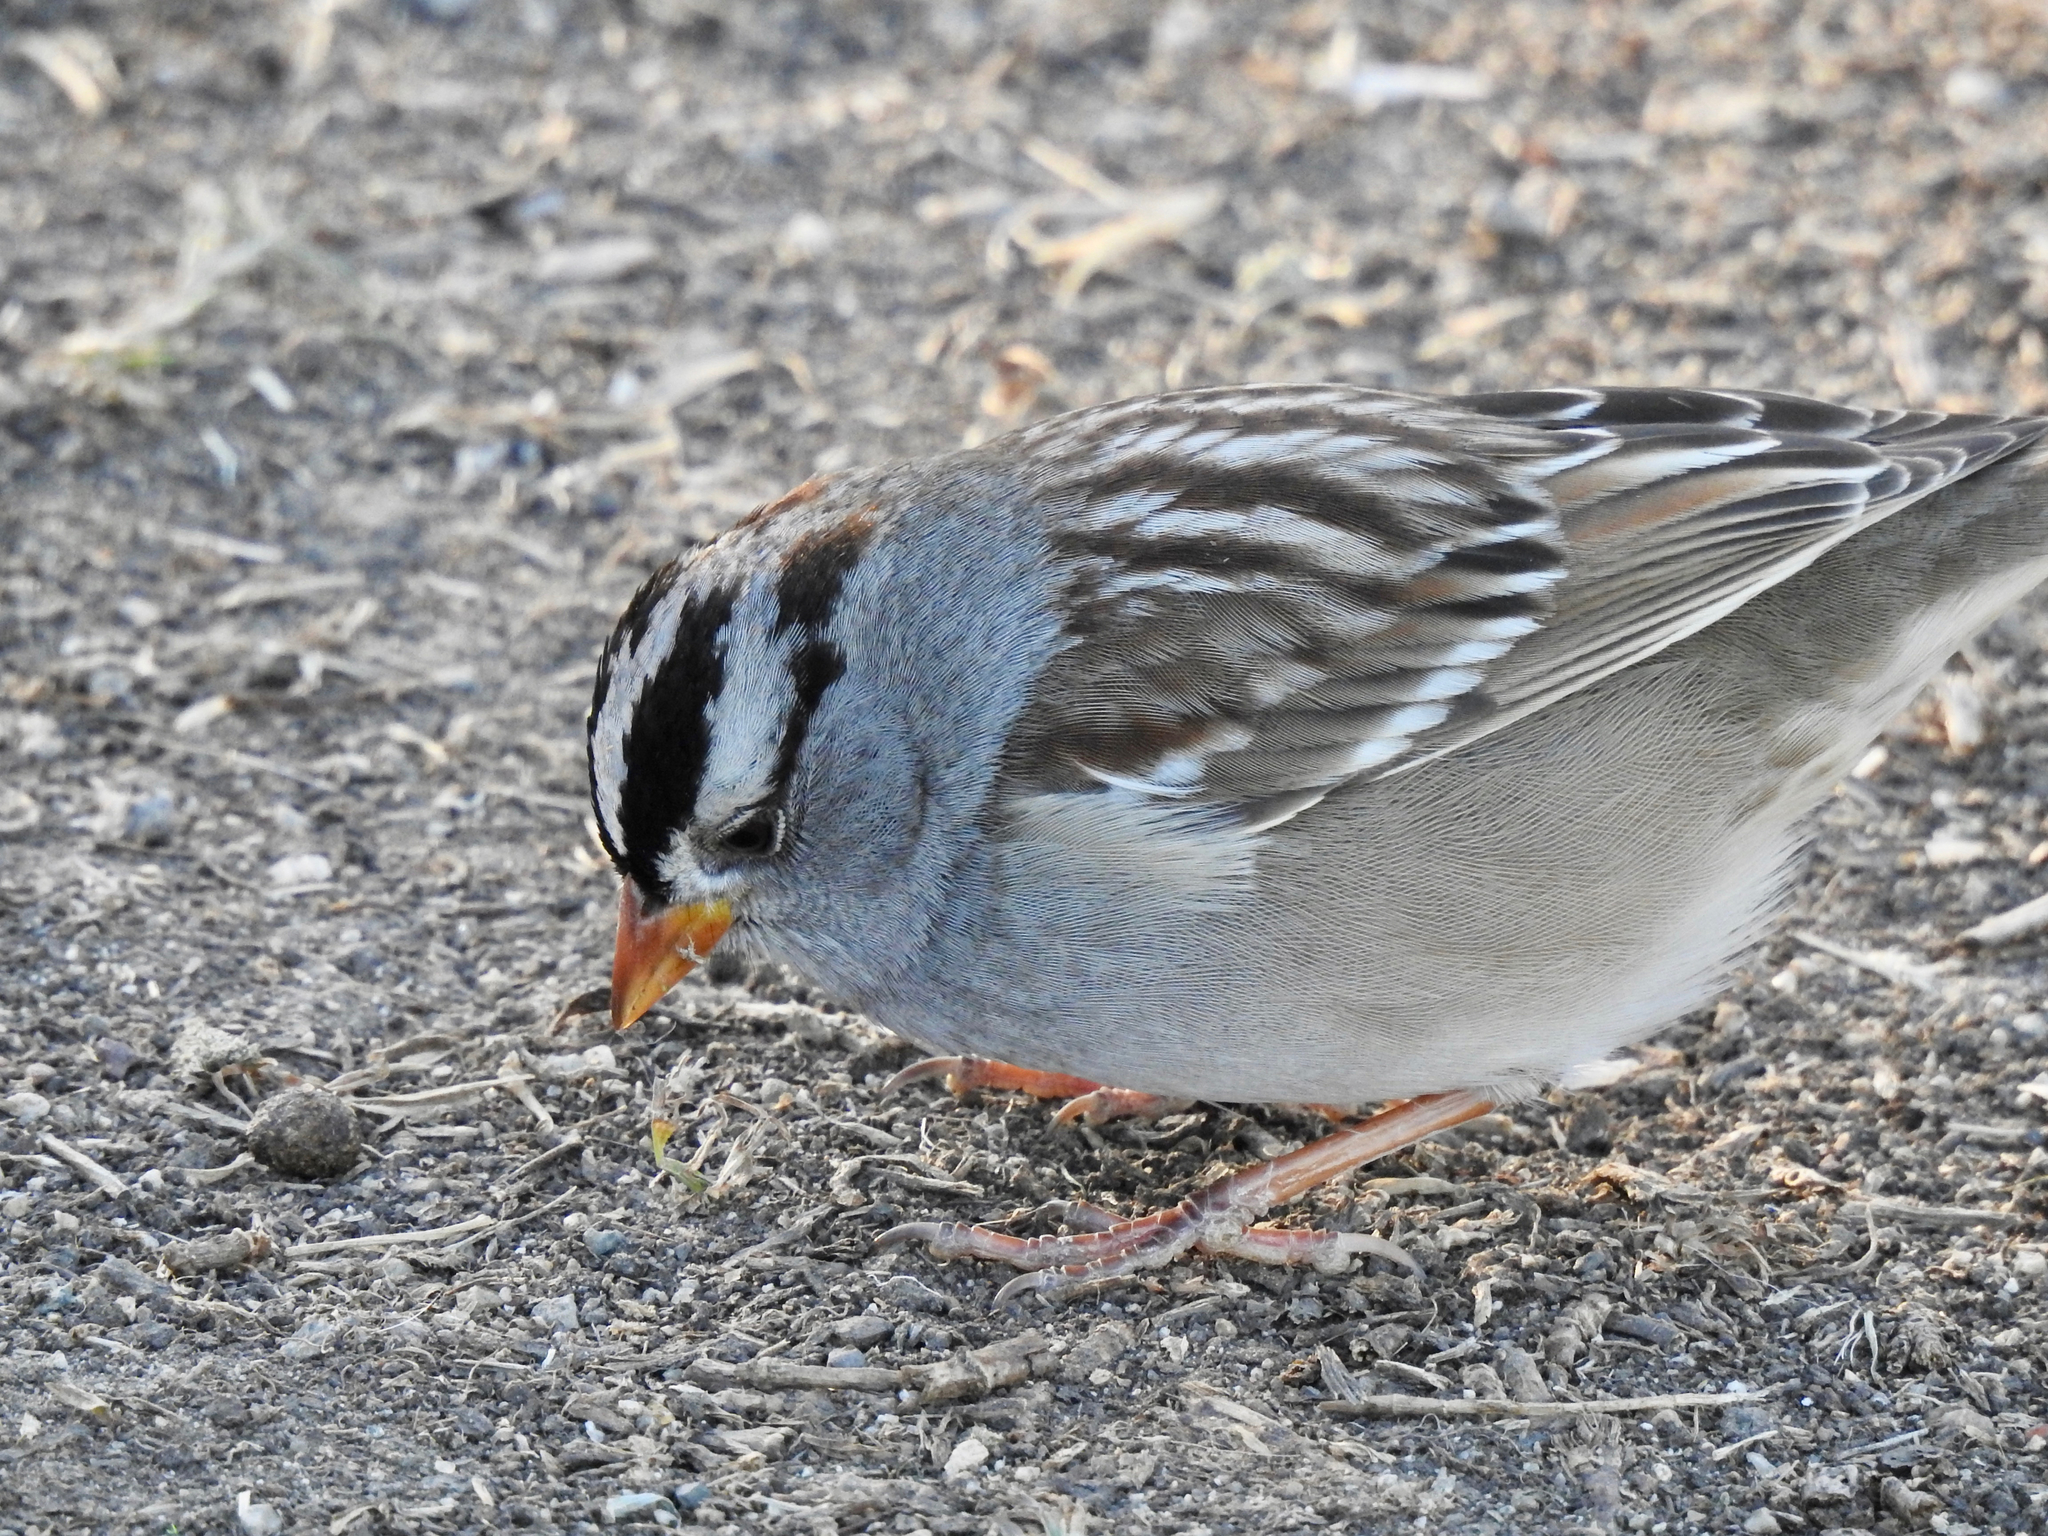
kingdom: Animalia
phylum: Chordata
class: Aves
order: Passeriformes
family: Passerellidae
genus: Zonotrichia
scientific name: Zonotrichia leucophrys
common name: White-crowned sparrow
